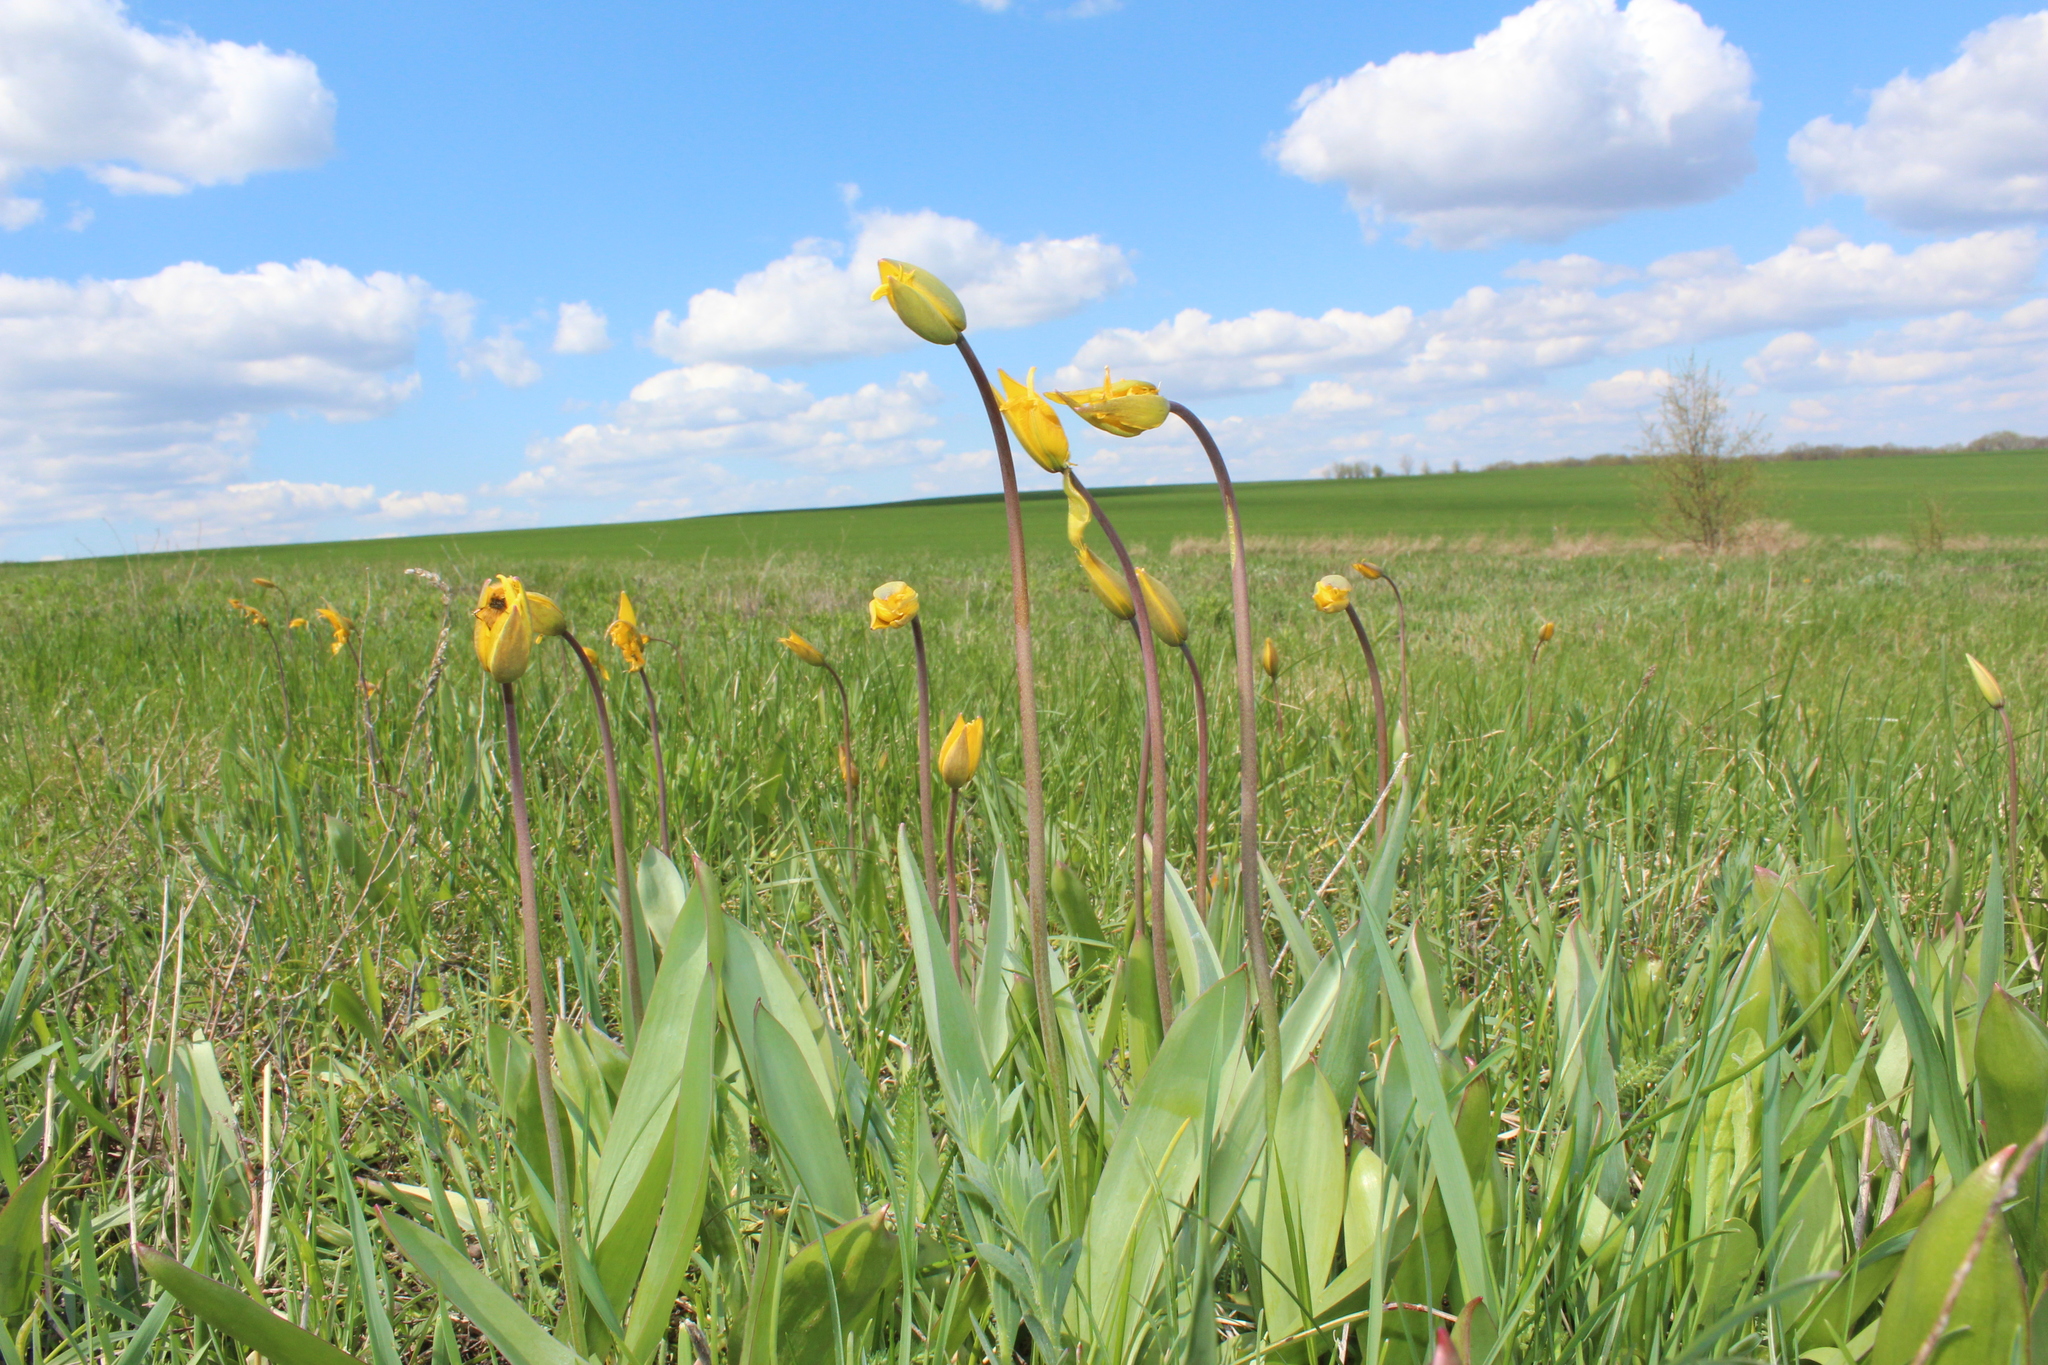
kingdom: Plantae
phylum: Tracheophyta
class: Liliopsida
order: Liliales
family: Liliaceae
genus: Tulipa
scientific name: Tulipa sylvestris
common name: Wild tulip
